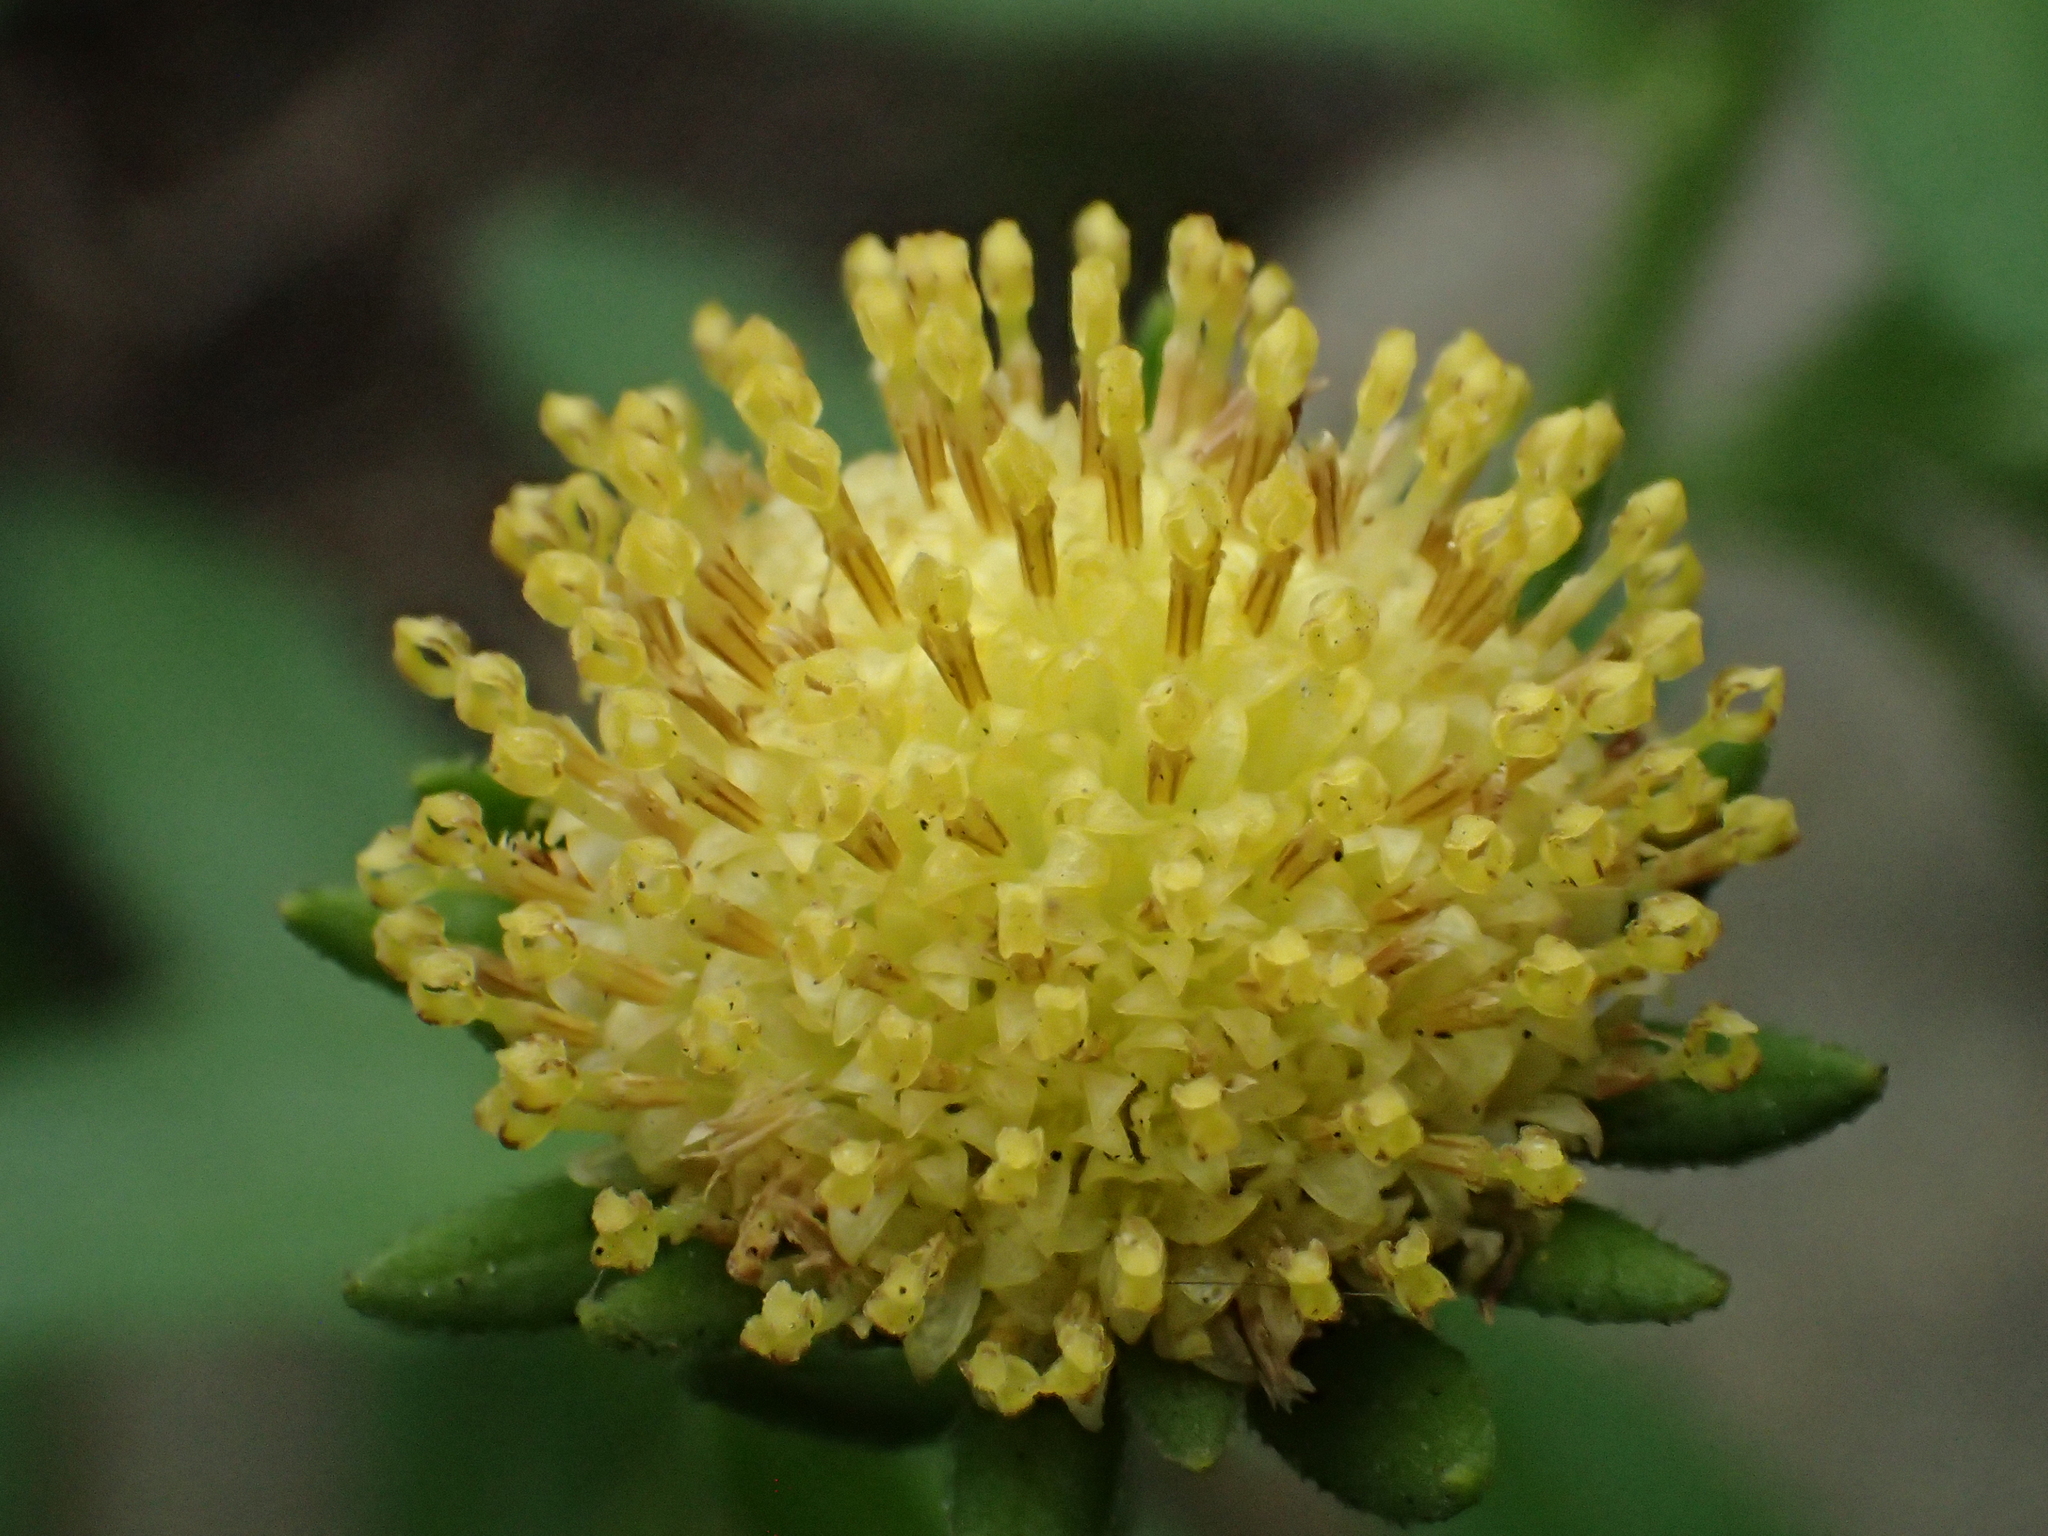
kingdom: Plantae
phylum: Tracheophyta
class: Magnoliopsida
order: Asterales
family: Asteraceae
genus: Heteropappus
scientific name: Heteropappus oldhamii
